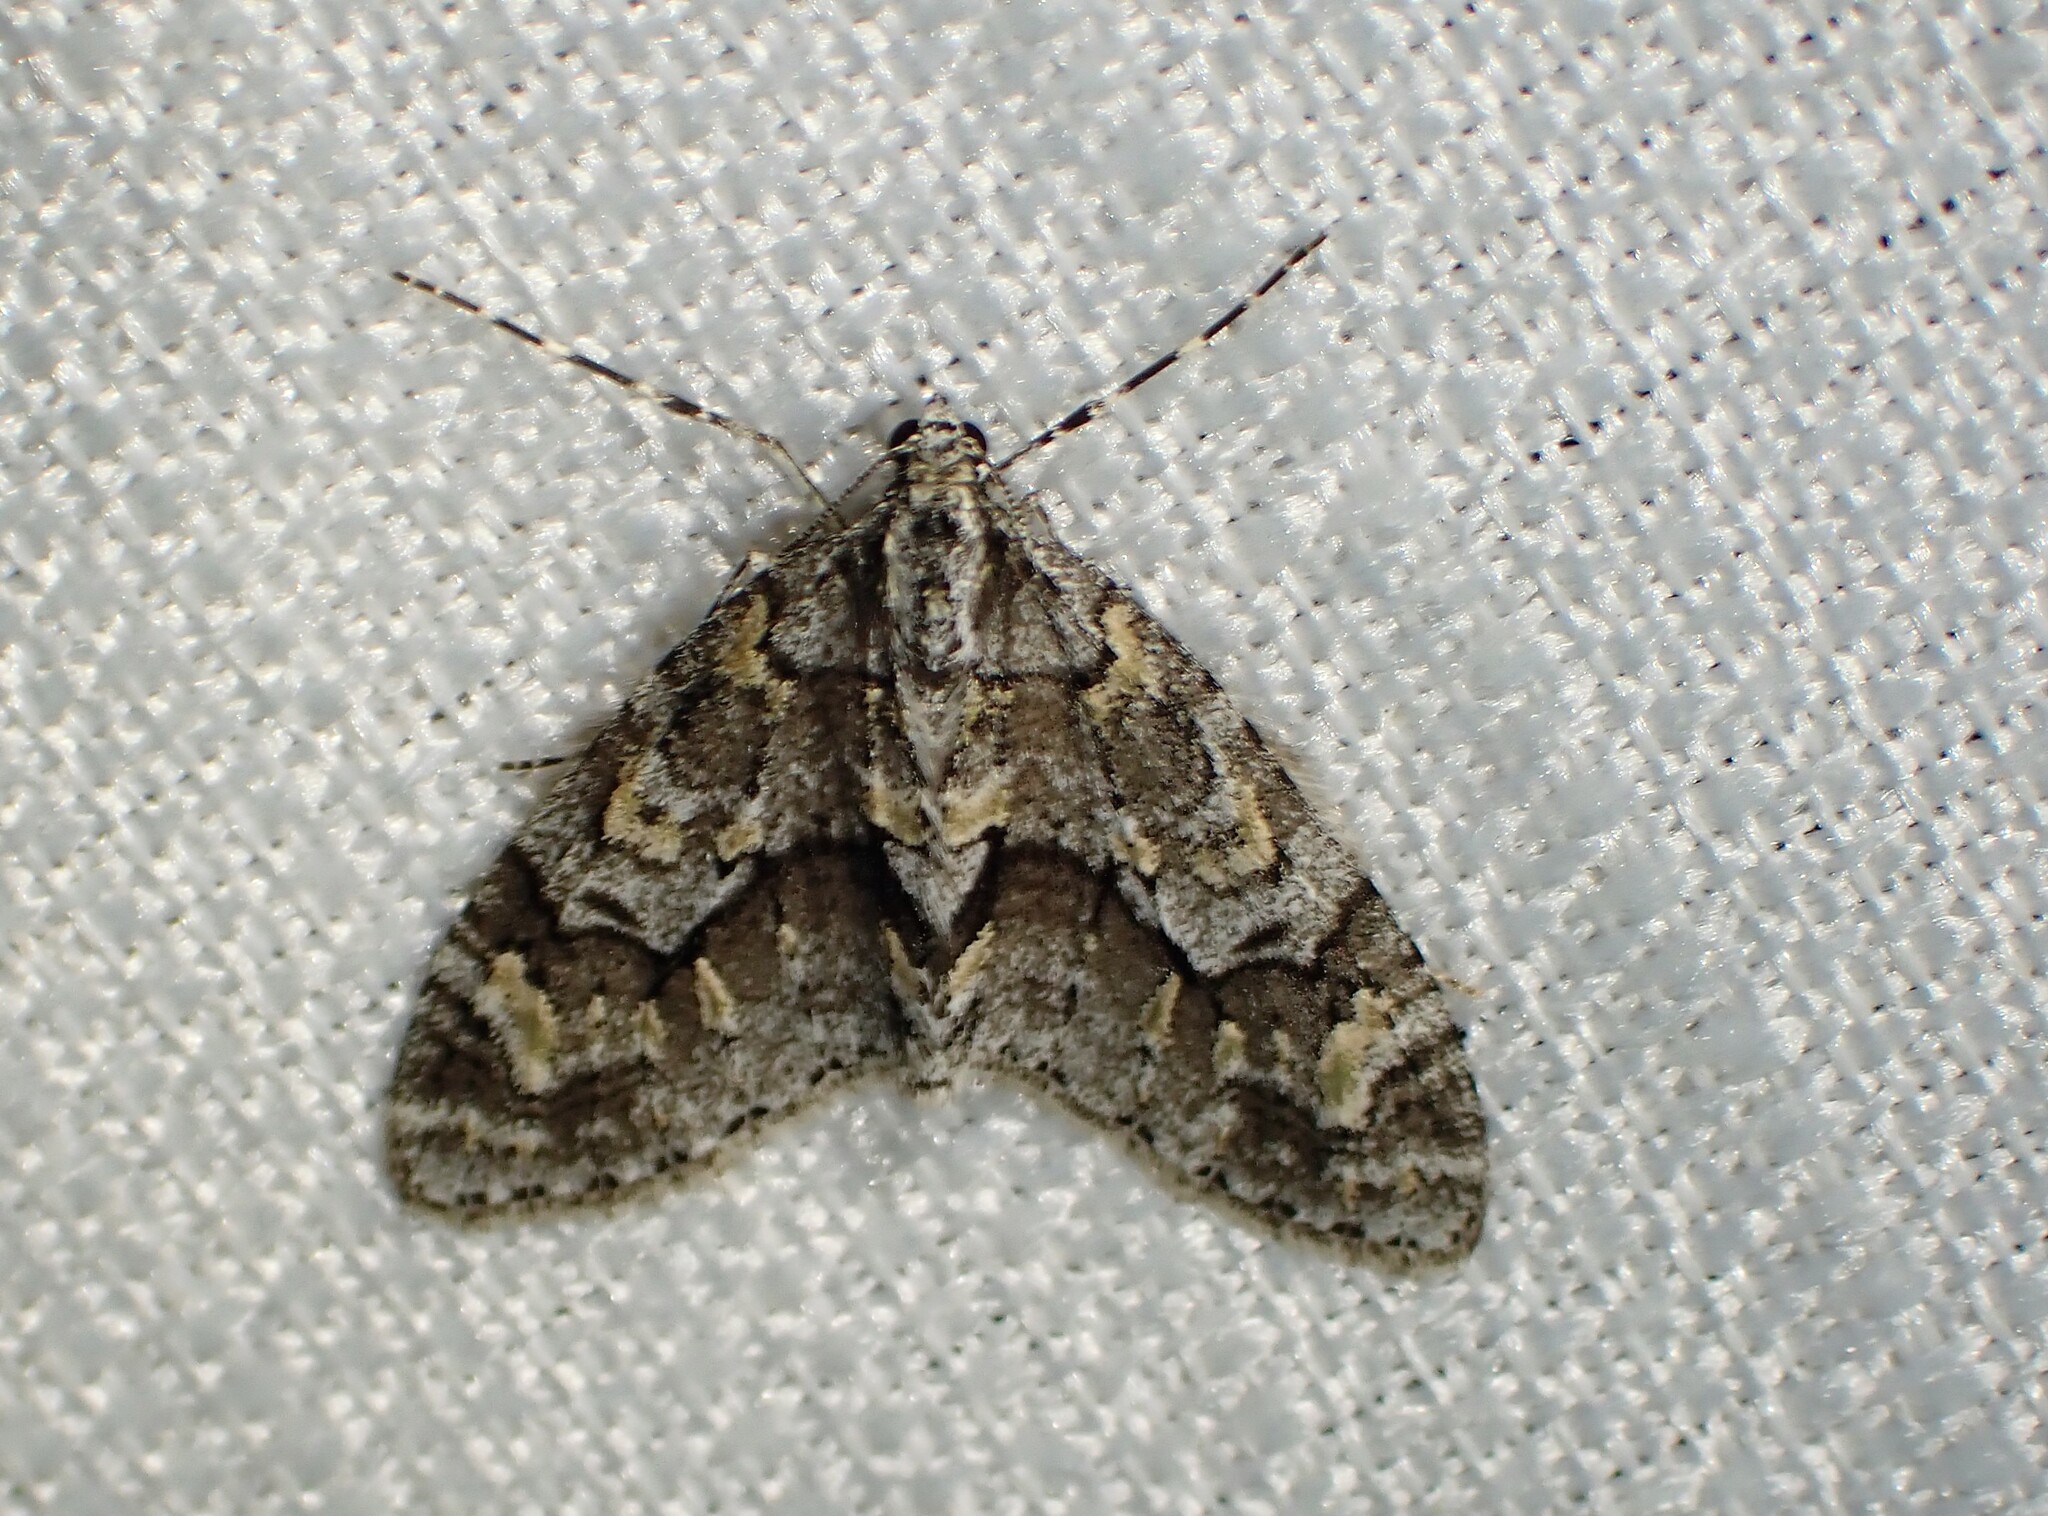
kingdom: Animalia
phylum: Arthropoda
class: Insecta
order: Lepidoptera
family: Geometridae
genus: Cladara
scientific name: Cladara limitaria
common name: Mottled gray carpet
